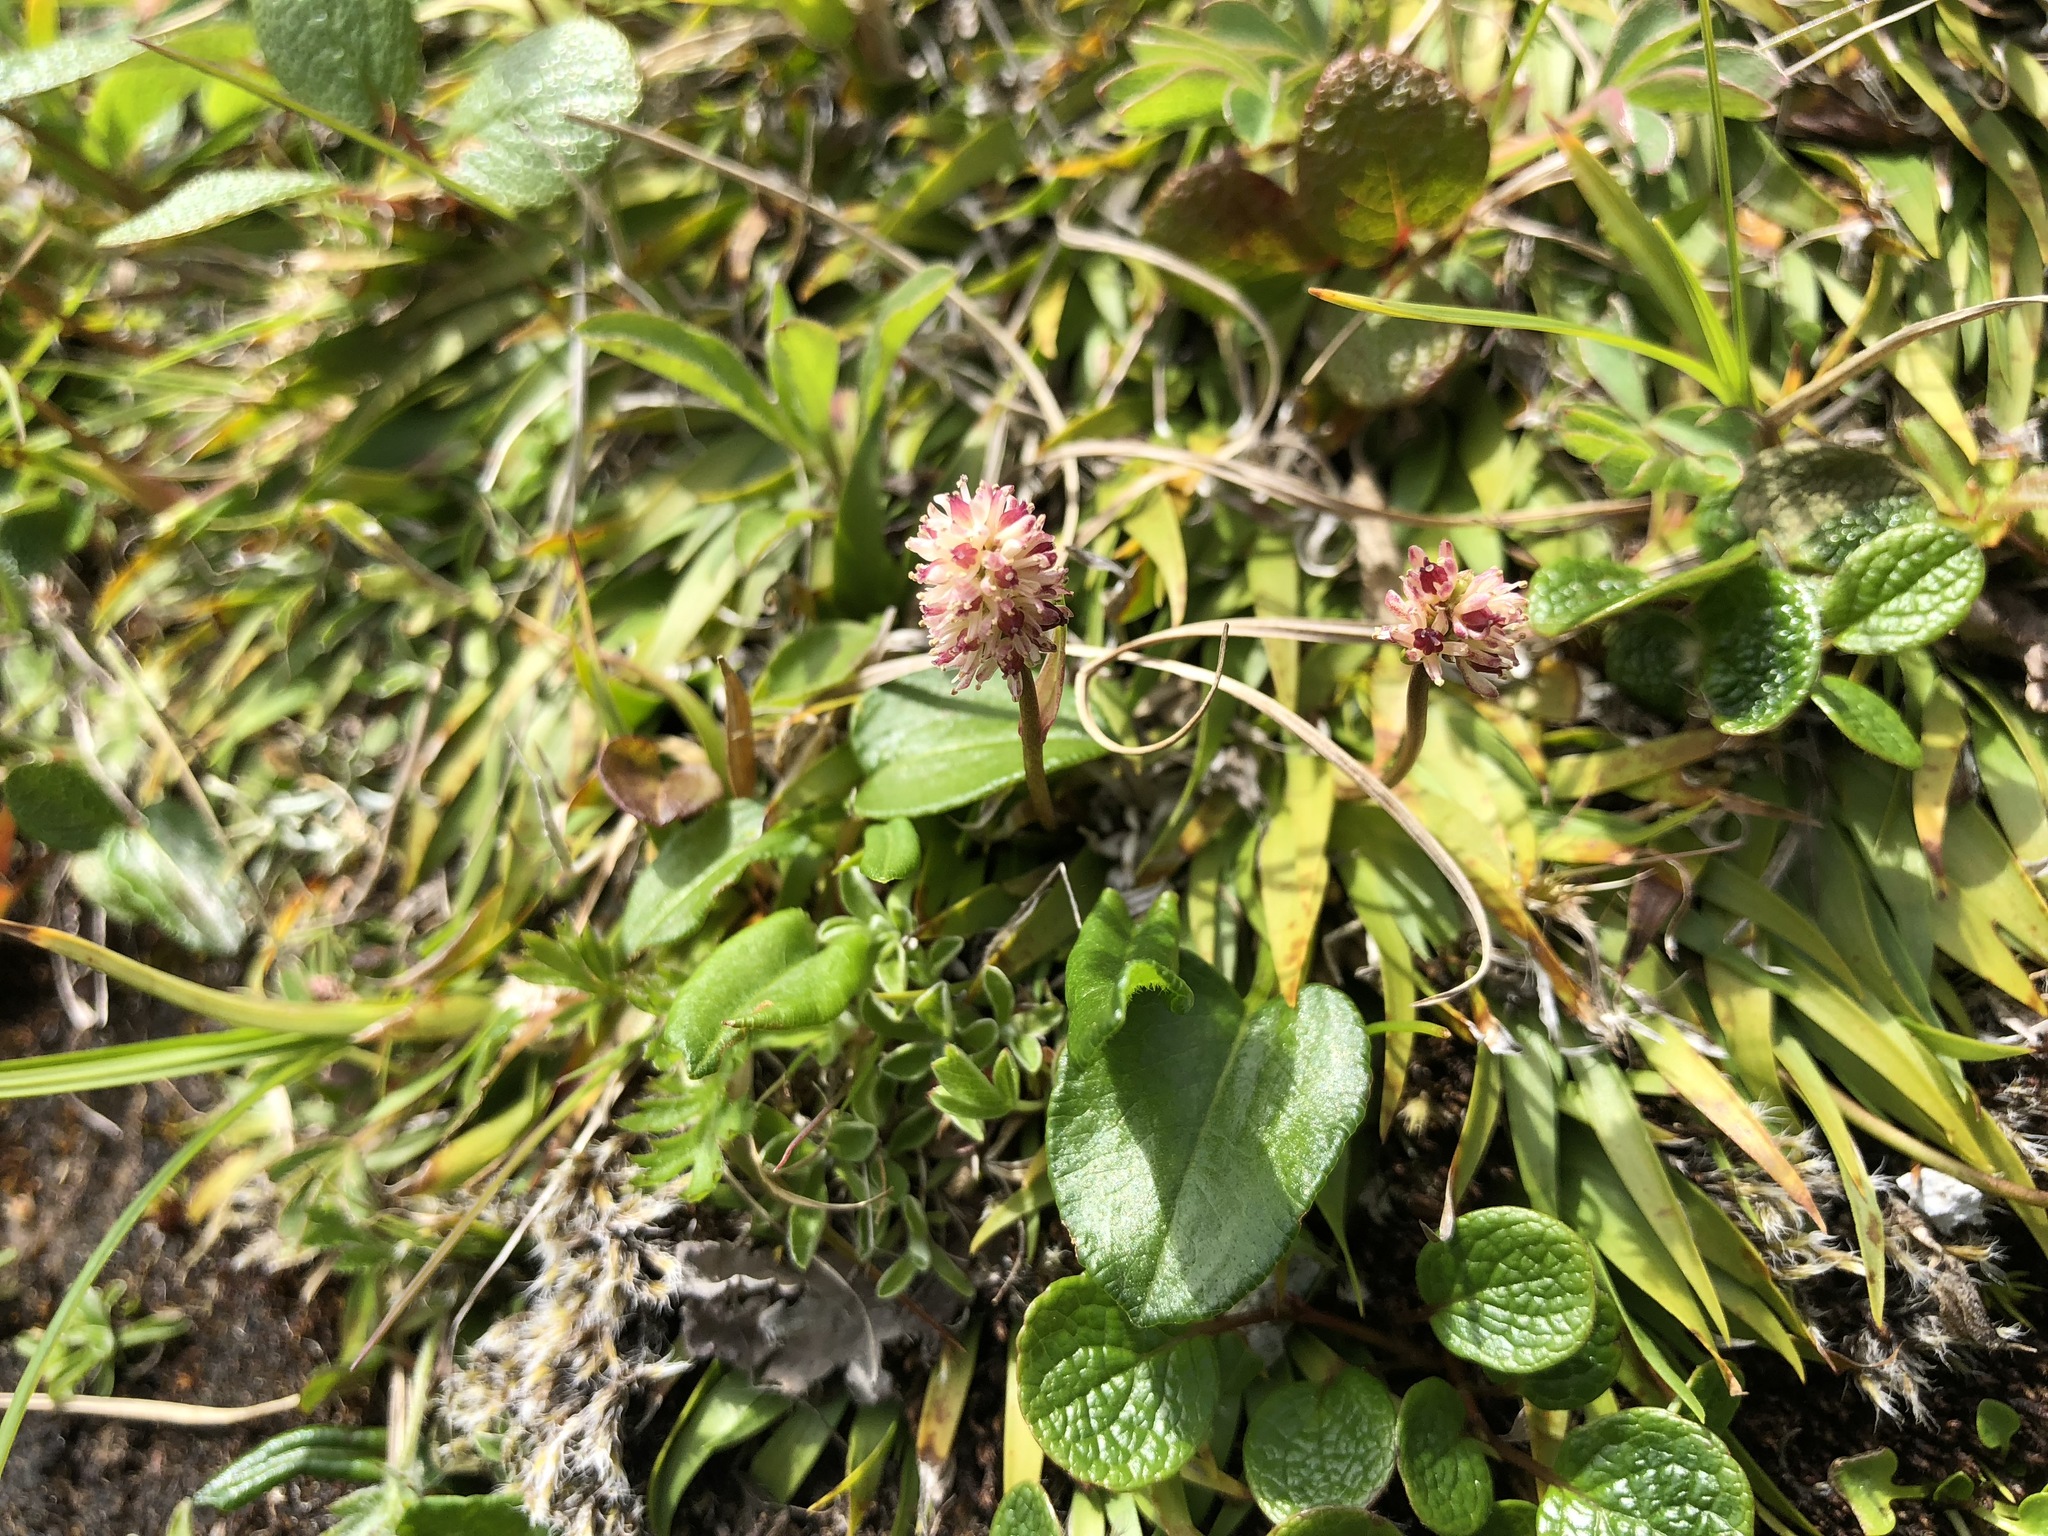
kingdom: Plantae
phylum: Tracheophyta
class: Liliopsida
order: Alismatales
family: Tofieldiaceae
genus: Tofieldia
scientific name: Tofieldia coccinea
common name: Northern false asphodel
